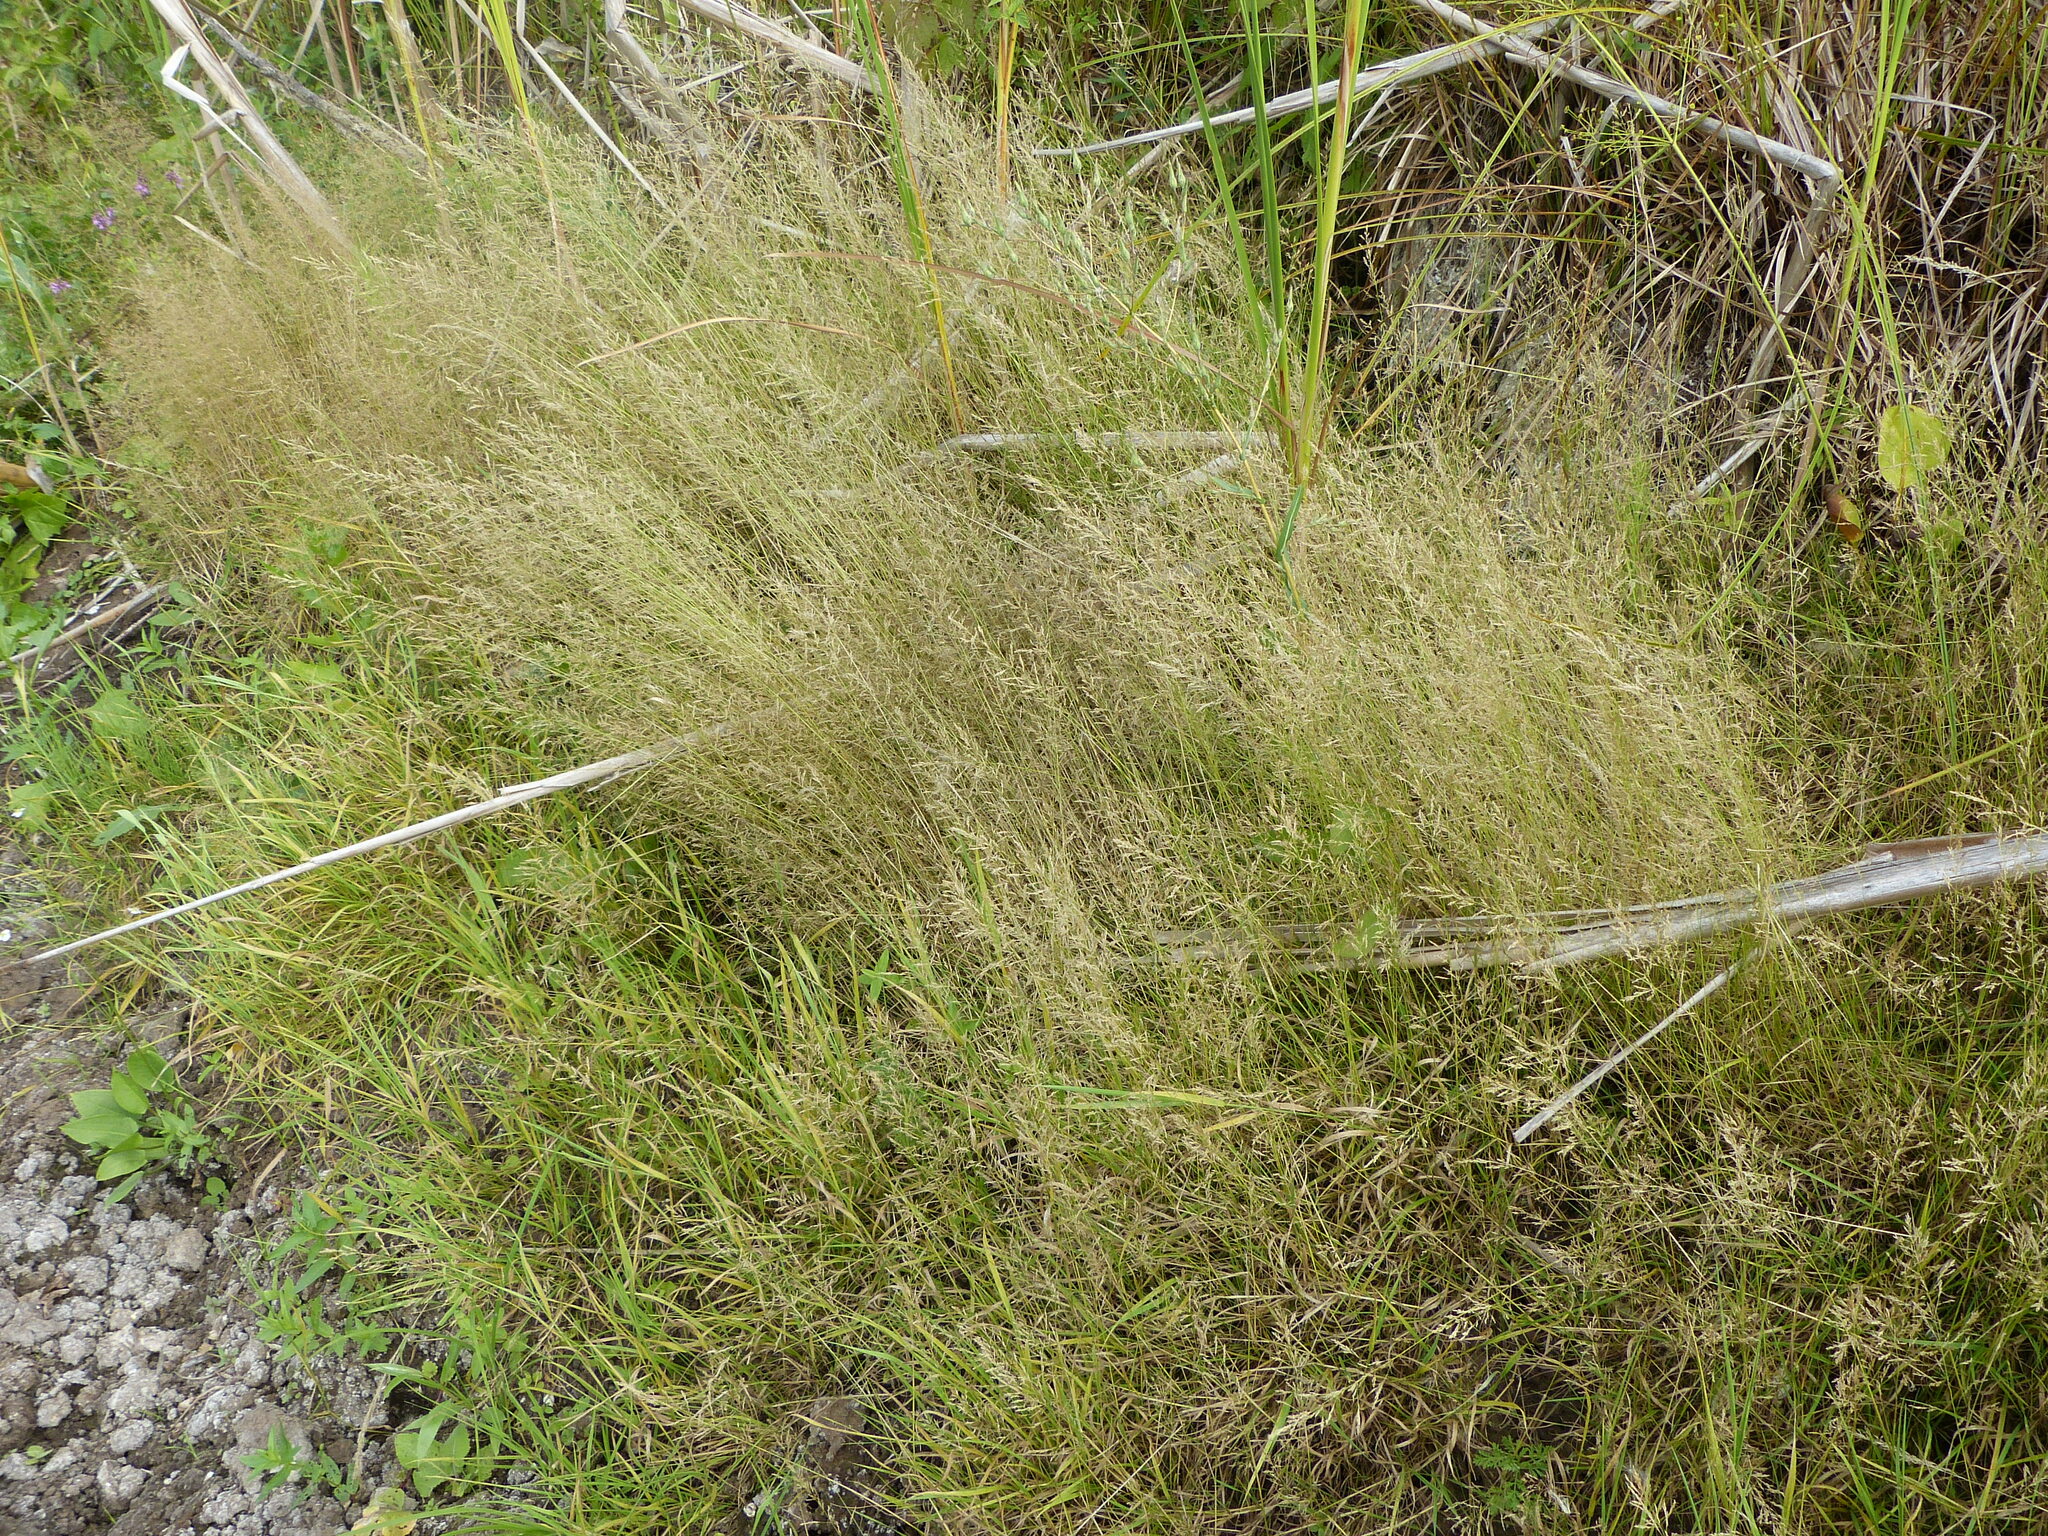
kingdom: Plantae
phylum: Tracheophyta
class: Liliopsida
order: Poales
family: Poaceae
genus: Agrostis
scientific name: Agrostis capillaris
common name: Colonial bentgrass
